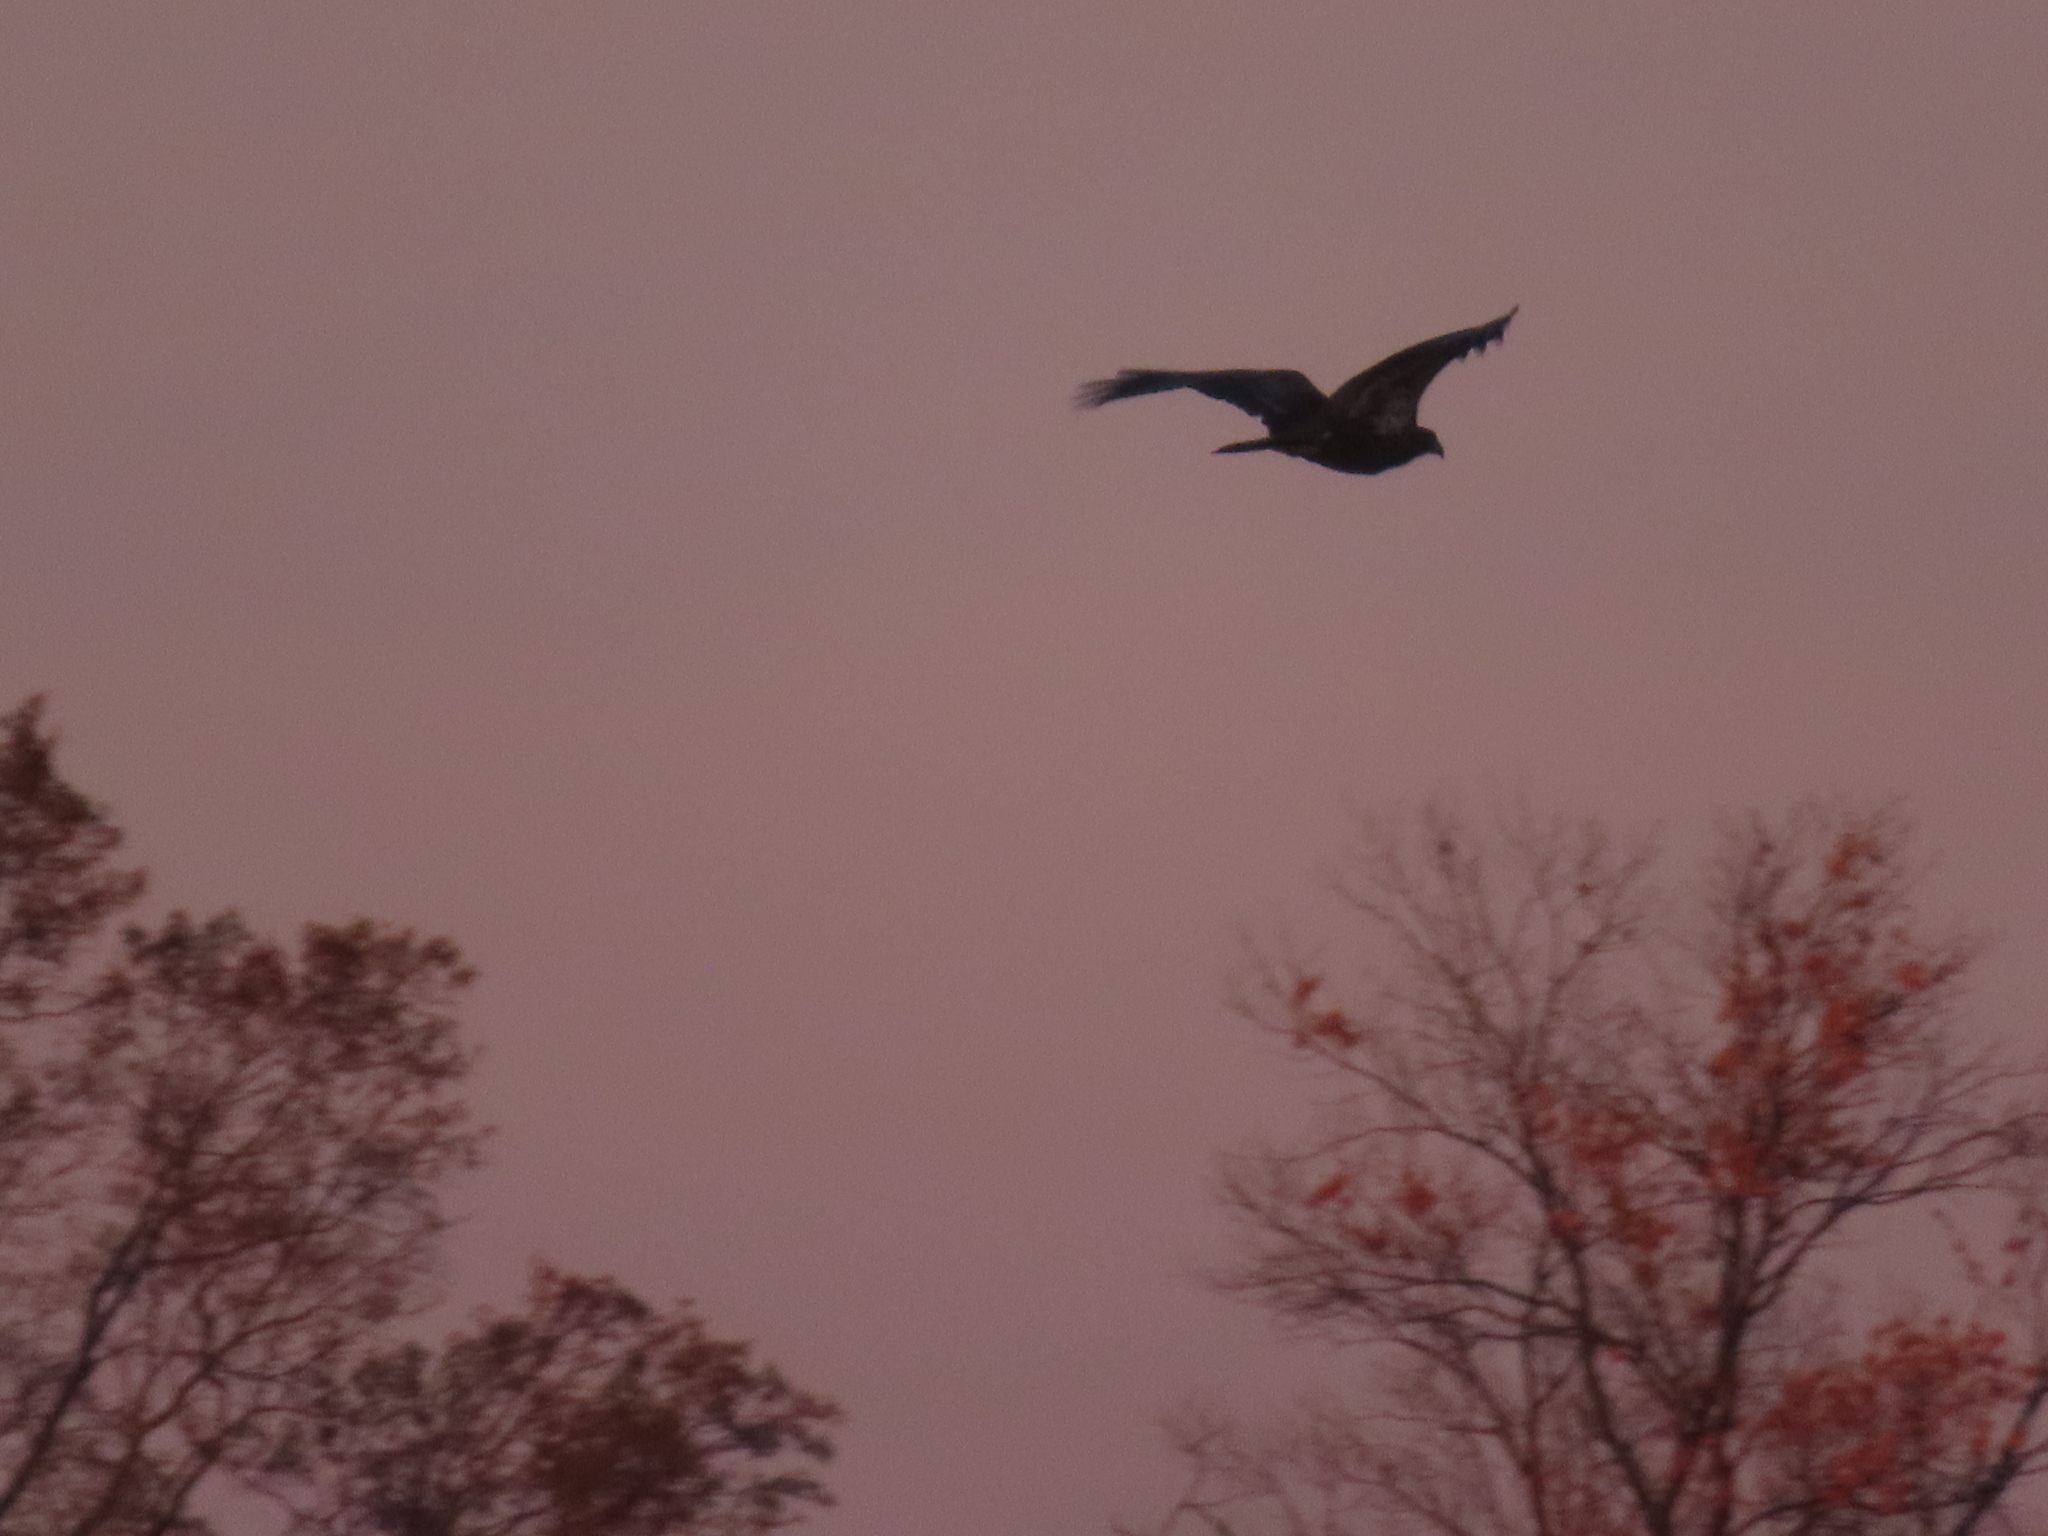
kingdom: Animalia
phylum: Chordata
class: Aves
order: Accipitriformes
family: Accipitridae
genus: Haliaeetus
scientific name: Haliaeetus leucocephalus
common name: Bald eagle
